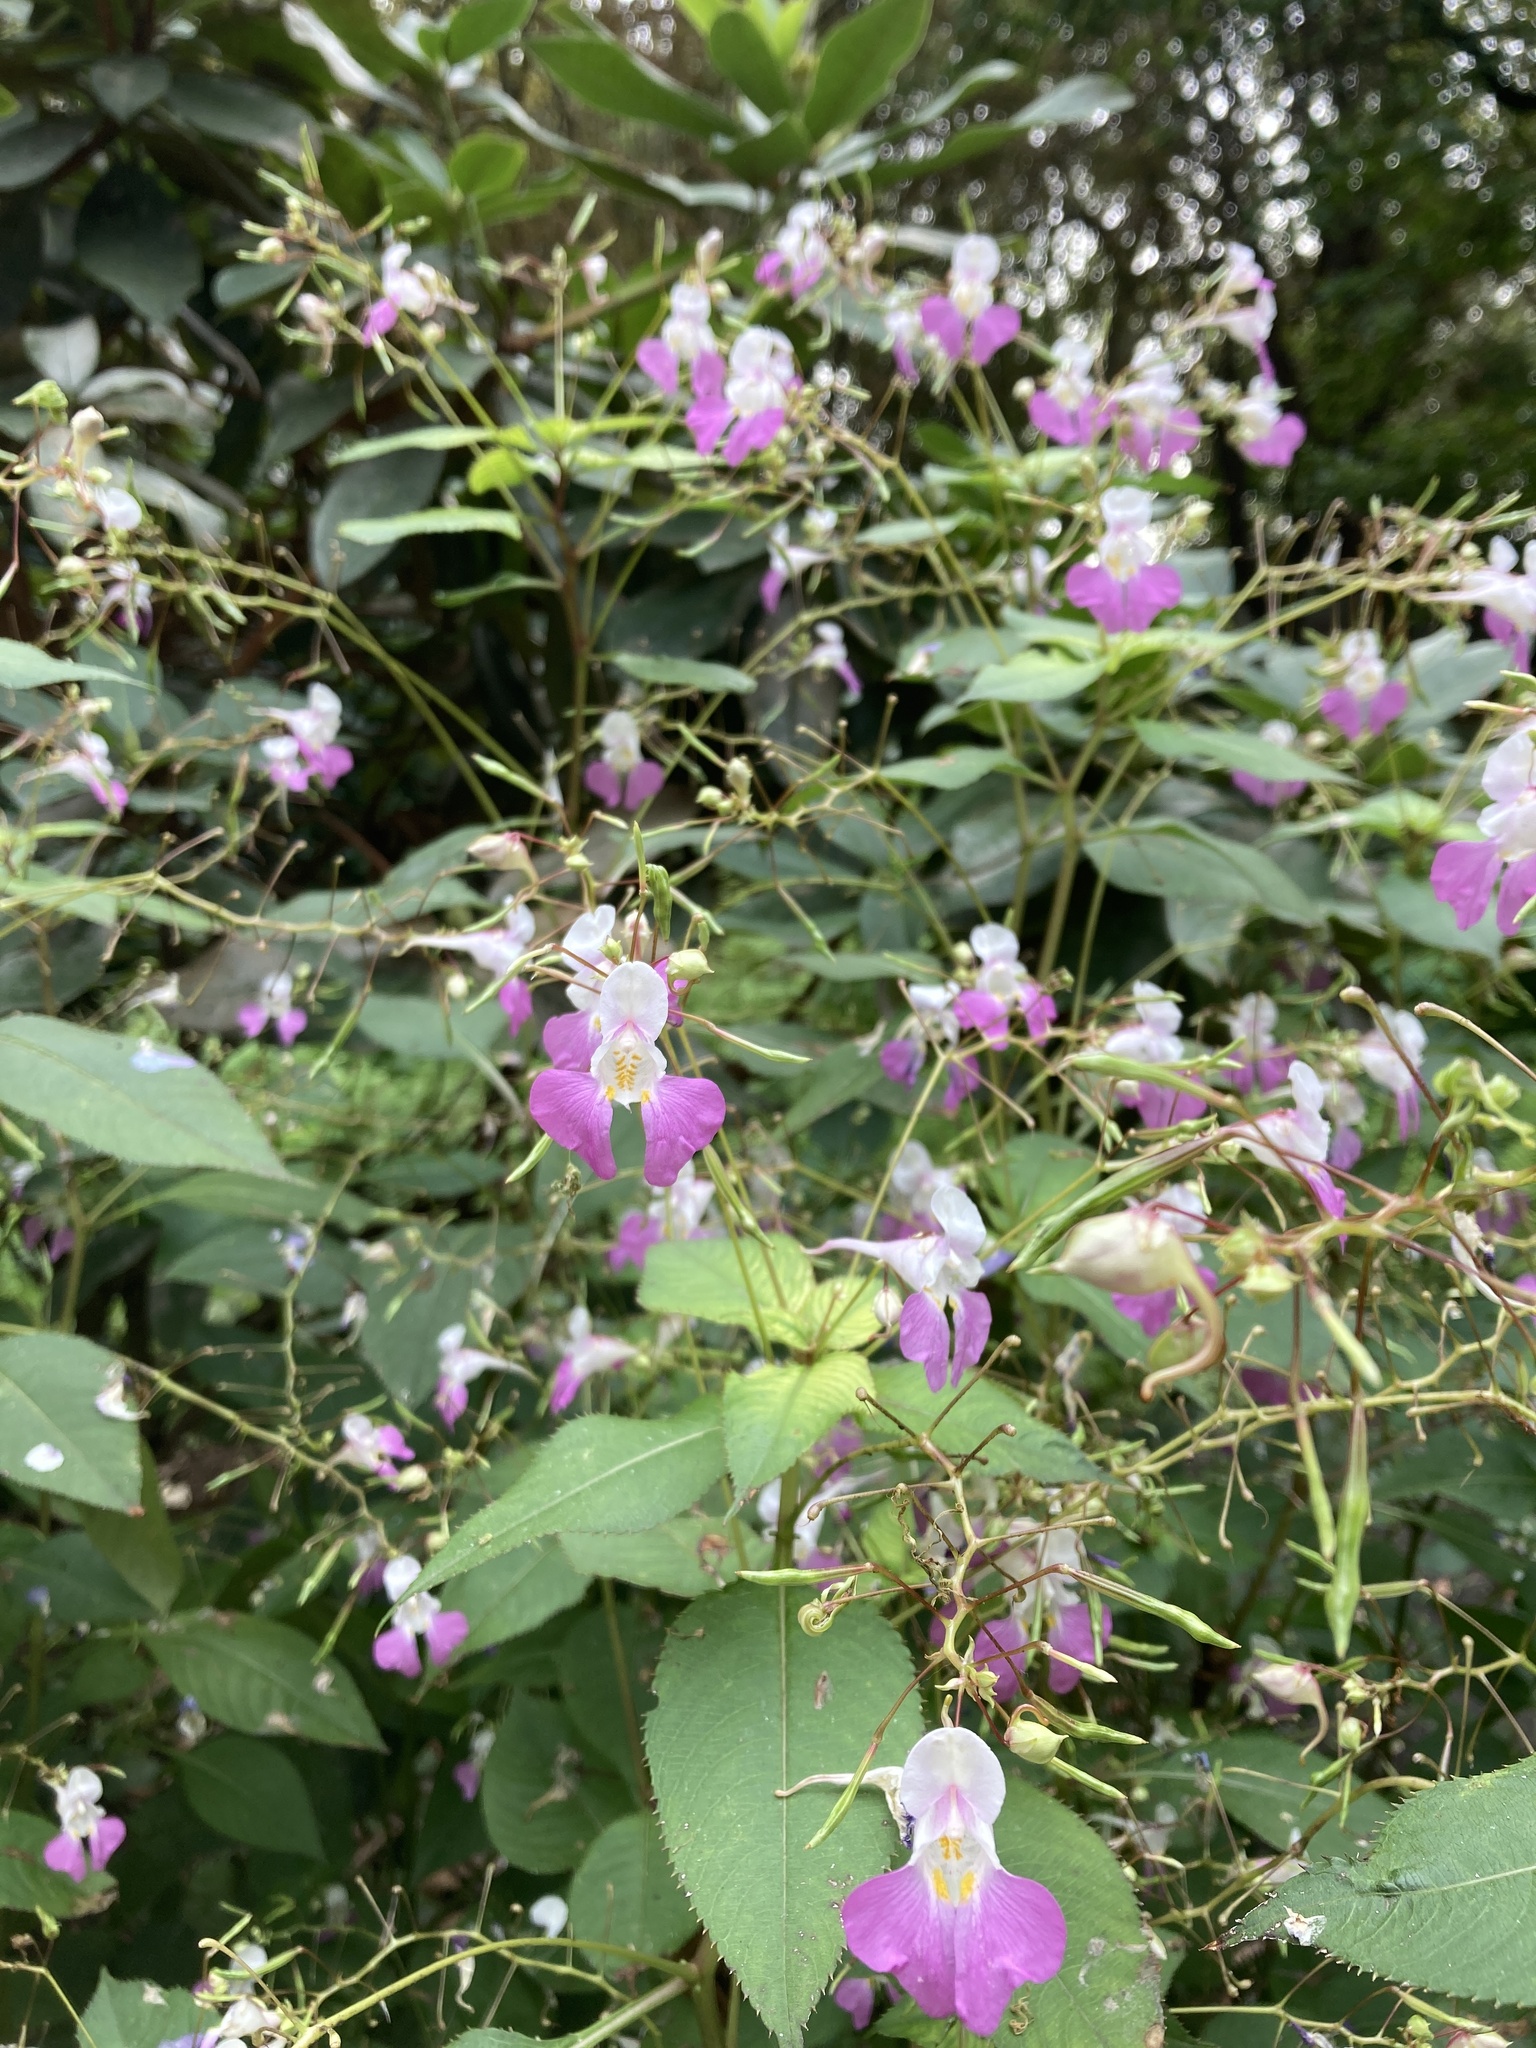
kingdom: Plantae
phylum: Tracheophyta
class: Magnoliopsida
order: Ericales
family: Balsaminaceae
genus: Impatiens
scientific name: Impatiens balfourii
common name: Balfour's touch-me-not
